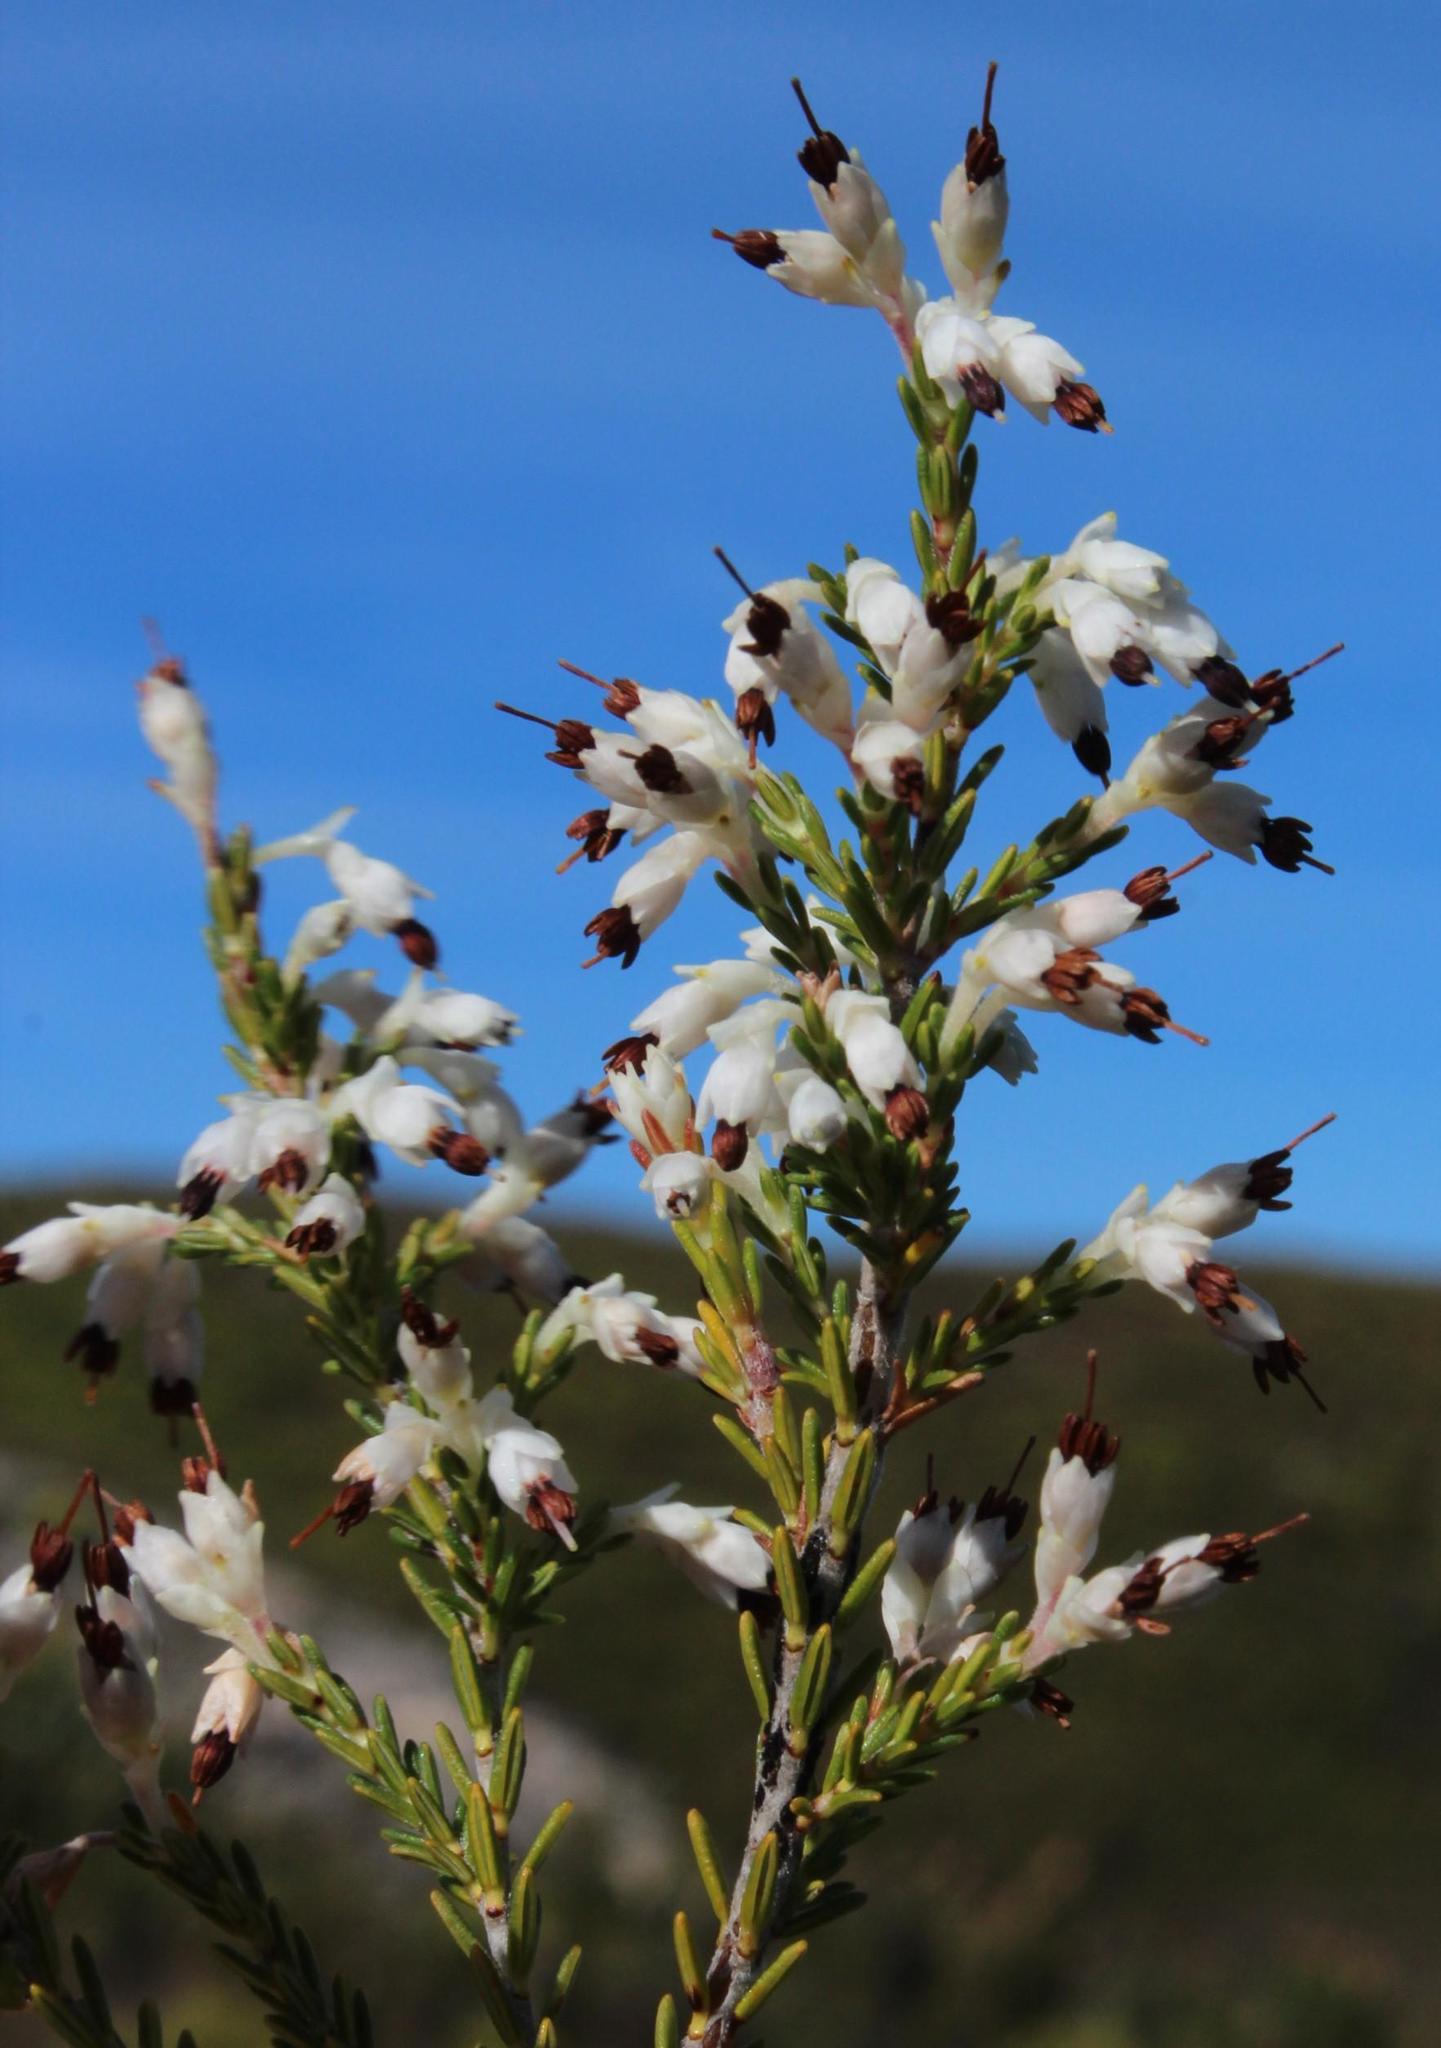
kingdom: Plantae
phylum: Tracheophyta
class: Magnoliopsida
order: Ericales
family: Ericaceae
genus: Erica
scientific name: Erica imbricata
